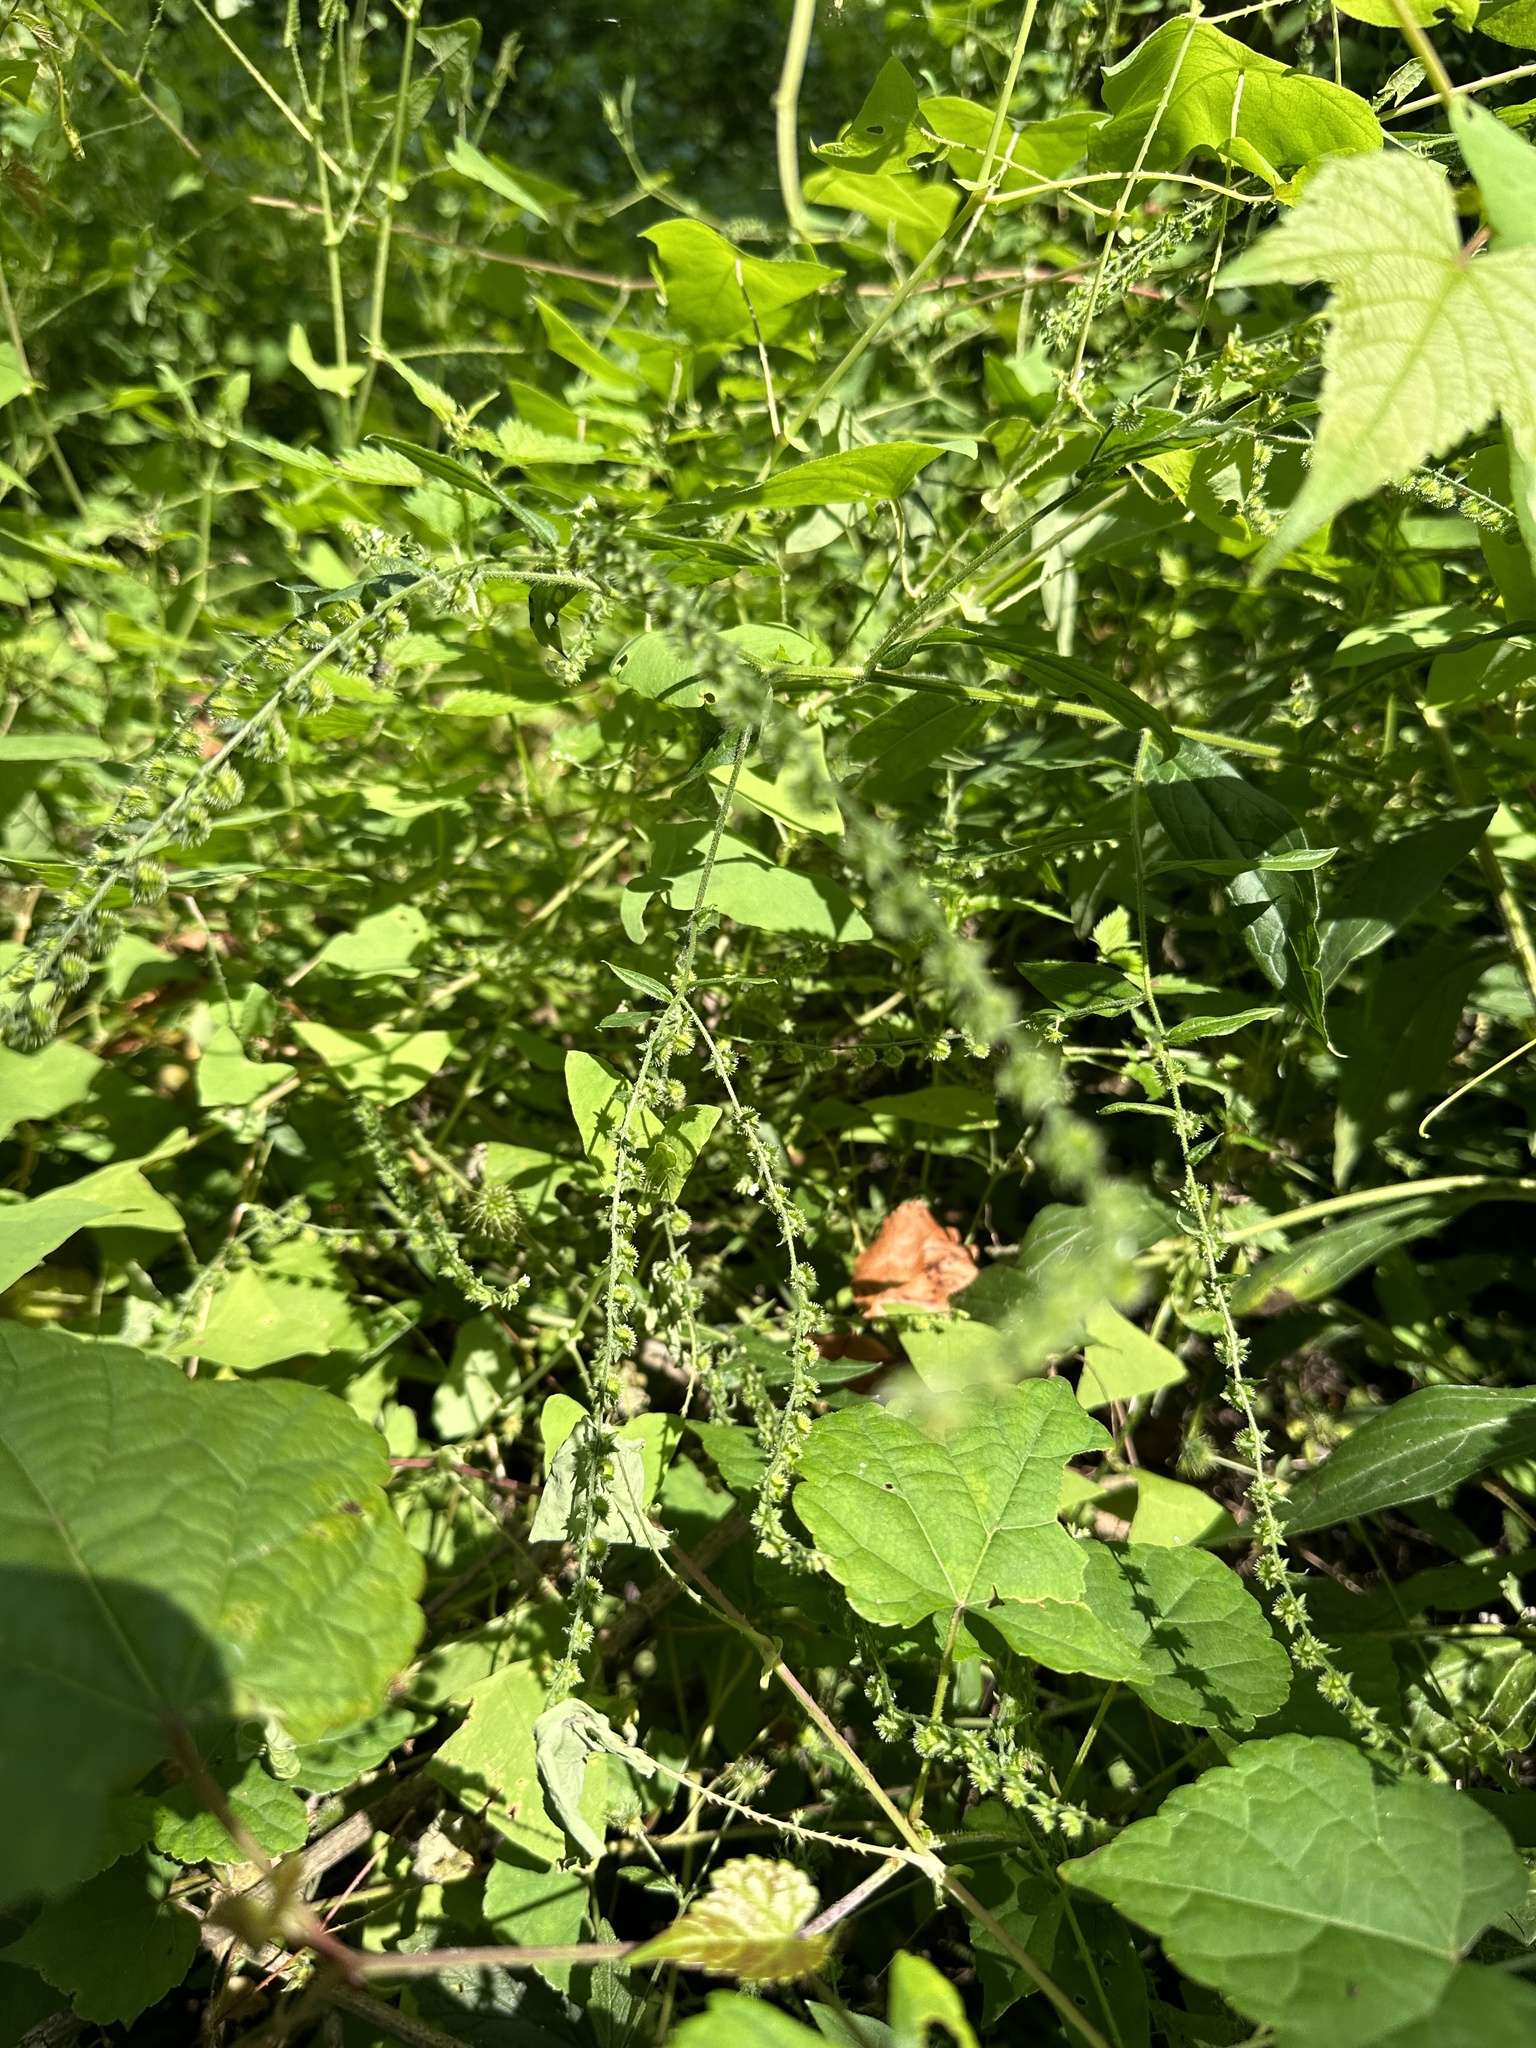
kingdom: Plantae
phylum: Tracheophyta
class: Magnoliopsida
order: Boraginales
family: Boraginaceae
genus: Hackelia
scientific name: Hackelia virginiana
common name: Beggar's-lice
